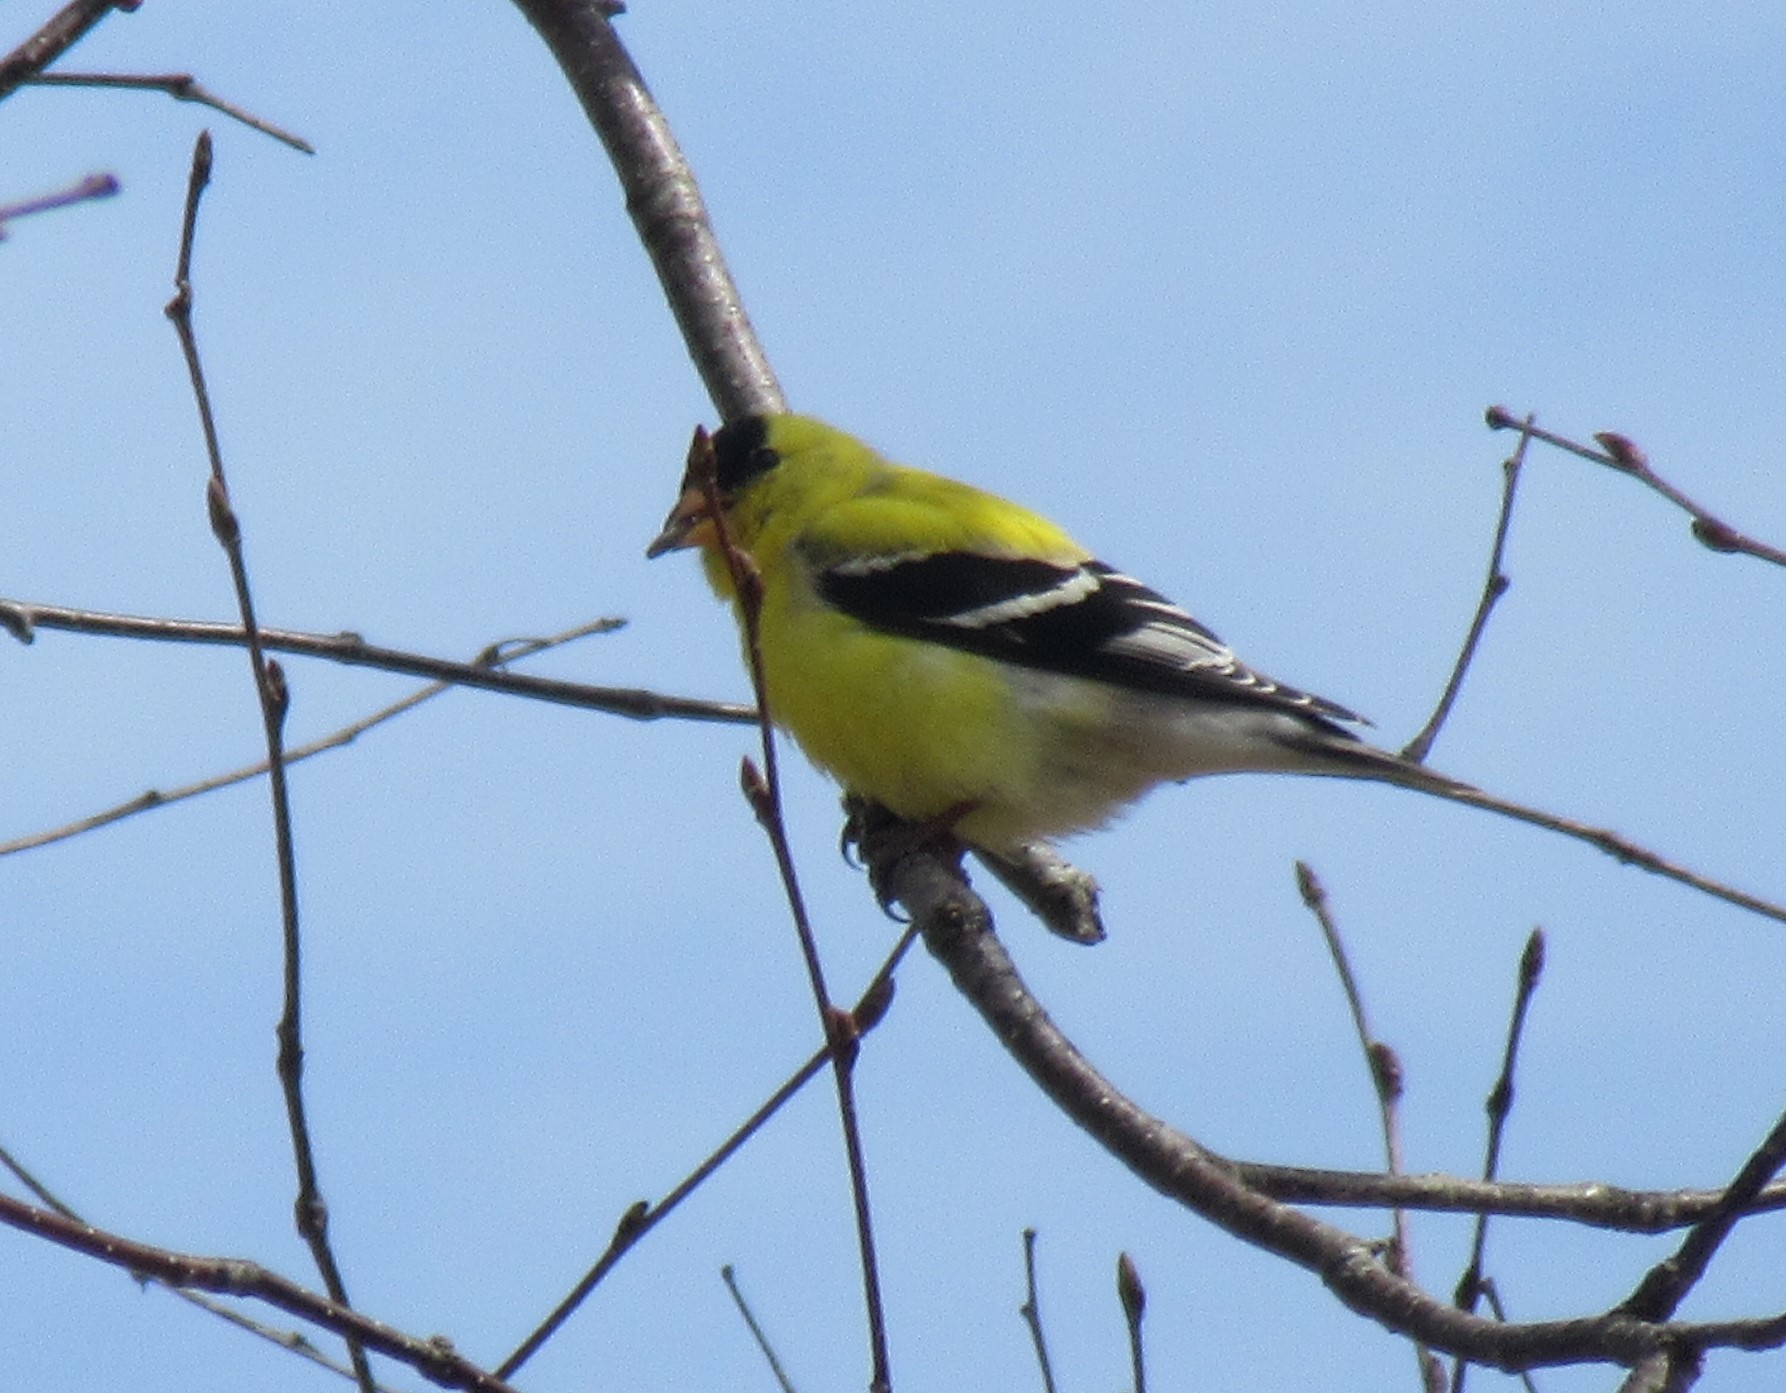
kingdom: Animalia
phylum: Chordata
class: Aves
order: Passeriformes
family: Fringillidae
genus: Spinus
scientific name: Spinus tristis
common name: American goldfinch
